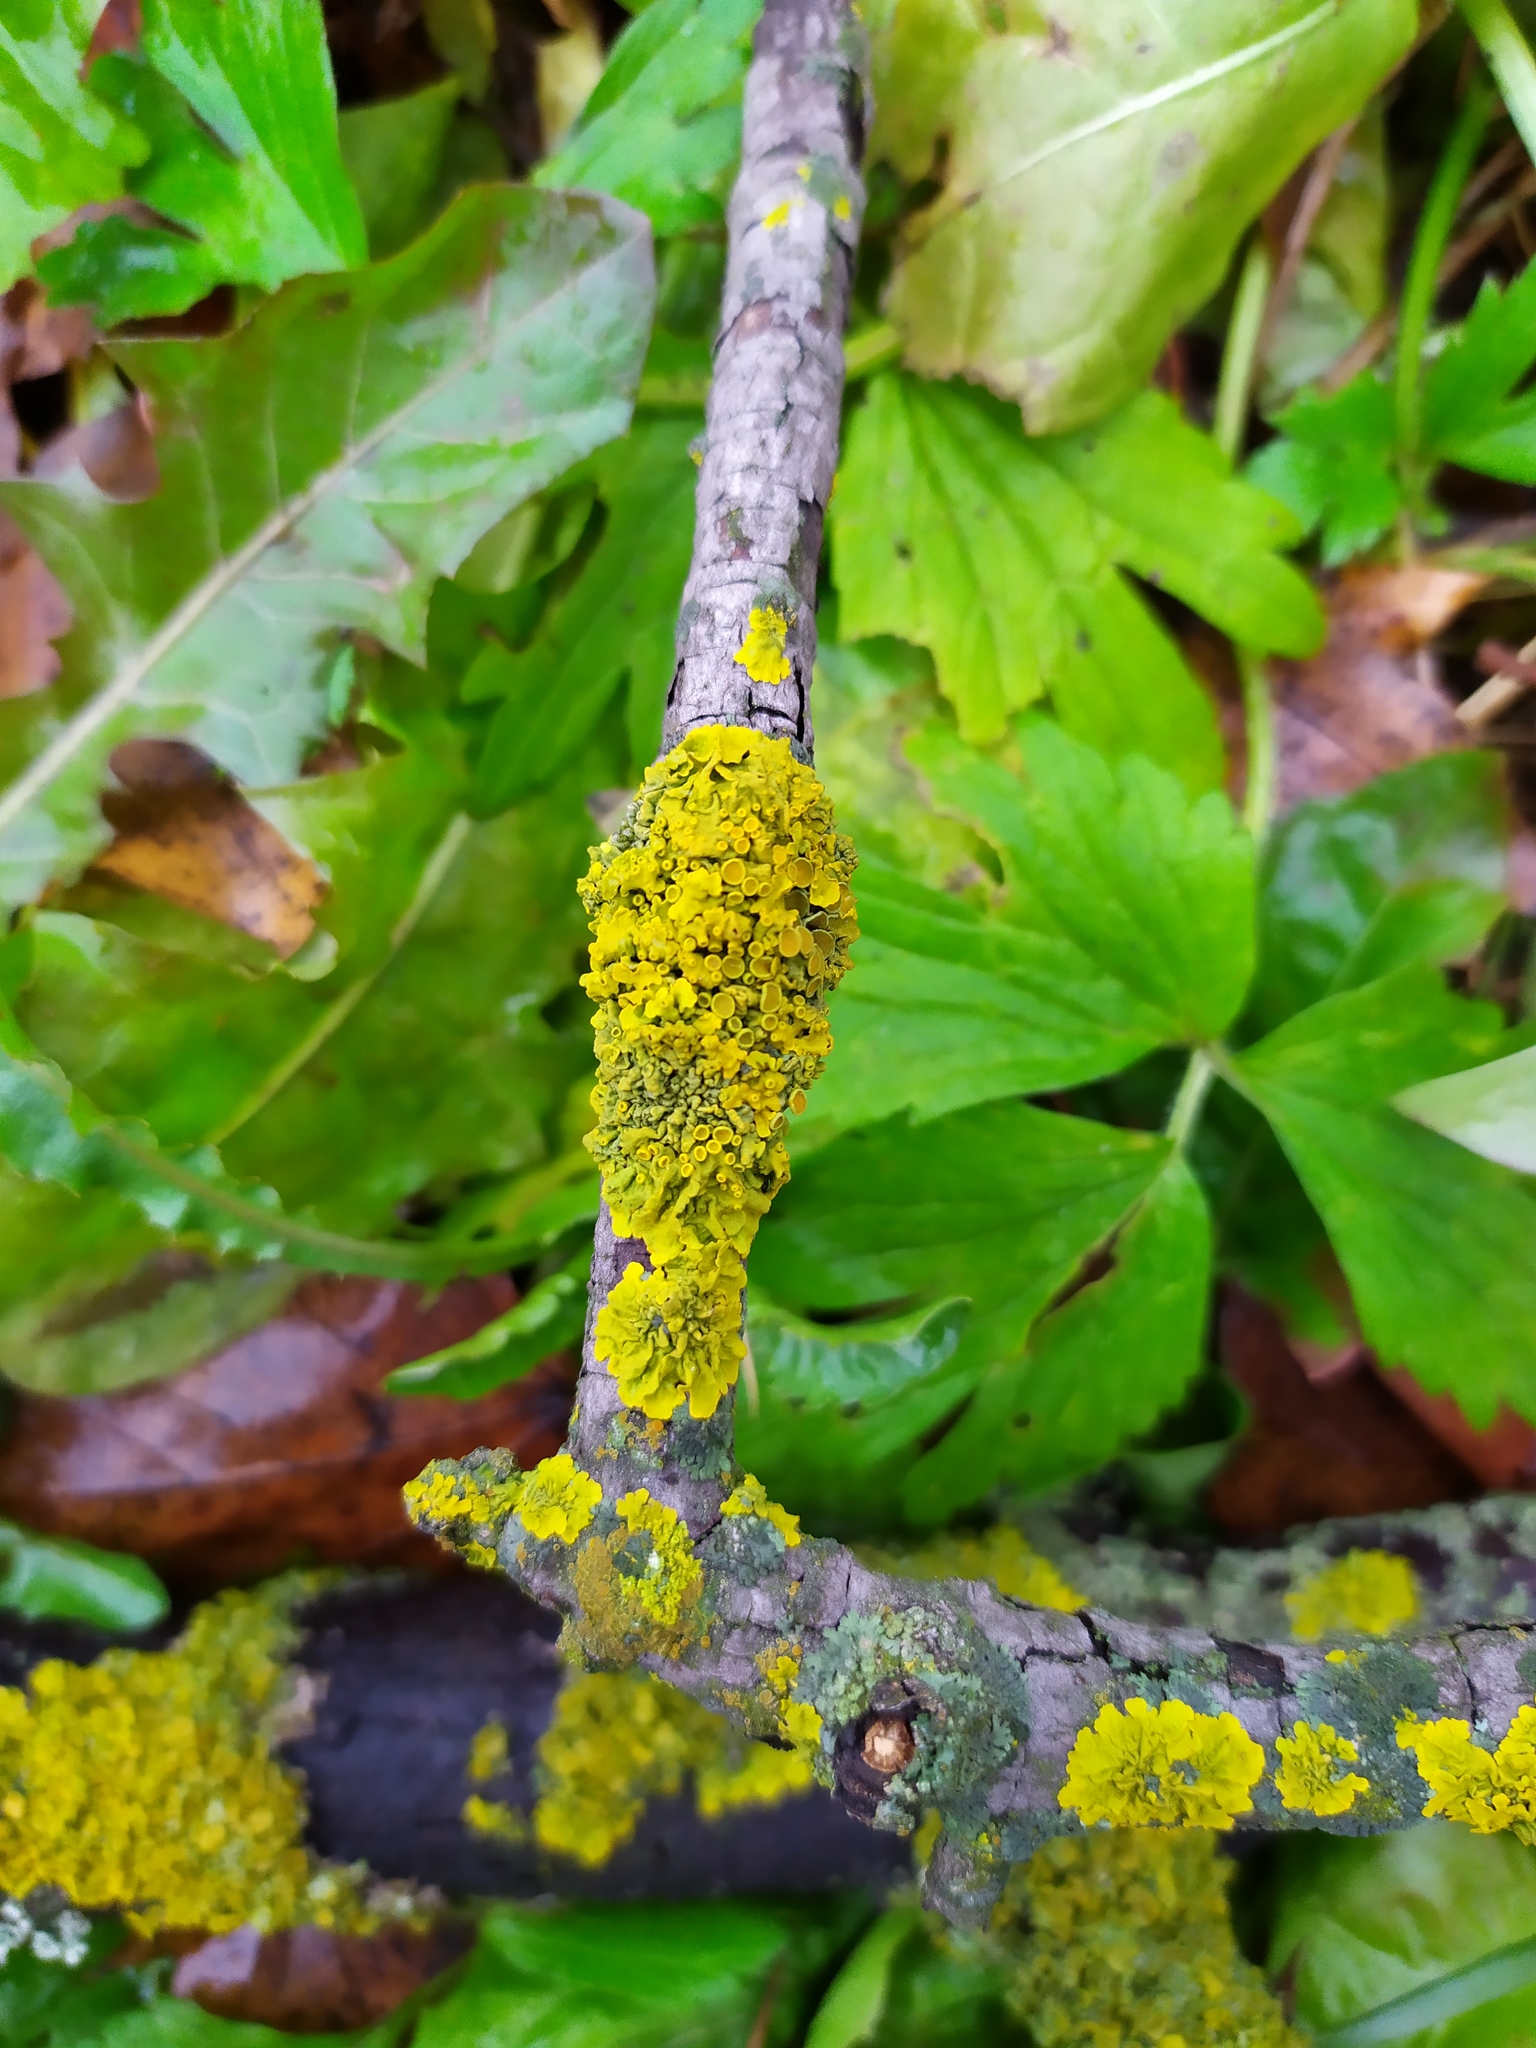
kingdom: Fungi
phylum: Ascomycota
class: Lecanoromycetes
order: Teloschistales
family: Teloschistaceae
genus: Xanthoria
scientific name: Xanthoria parietina
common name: Common orange lichen
